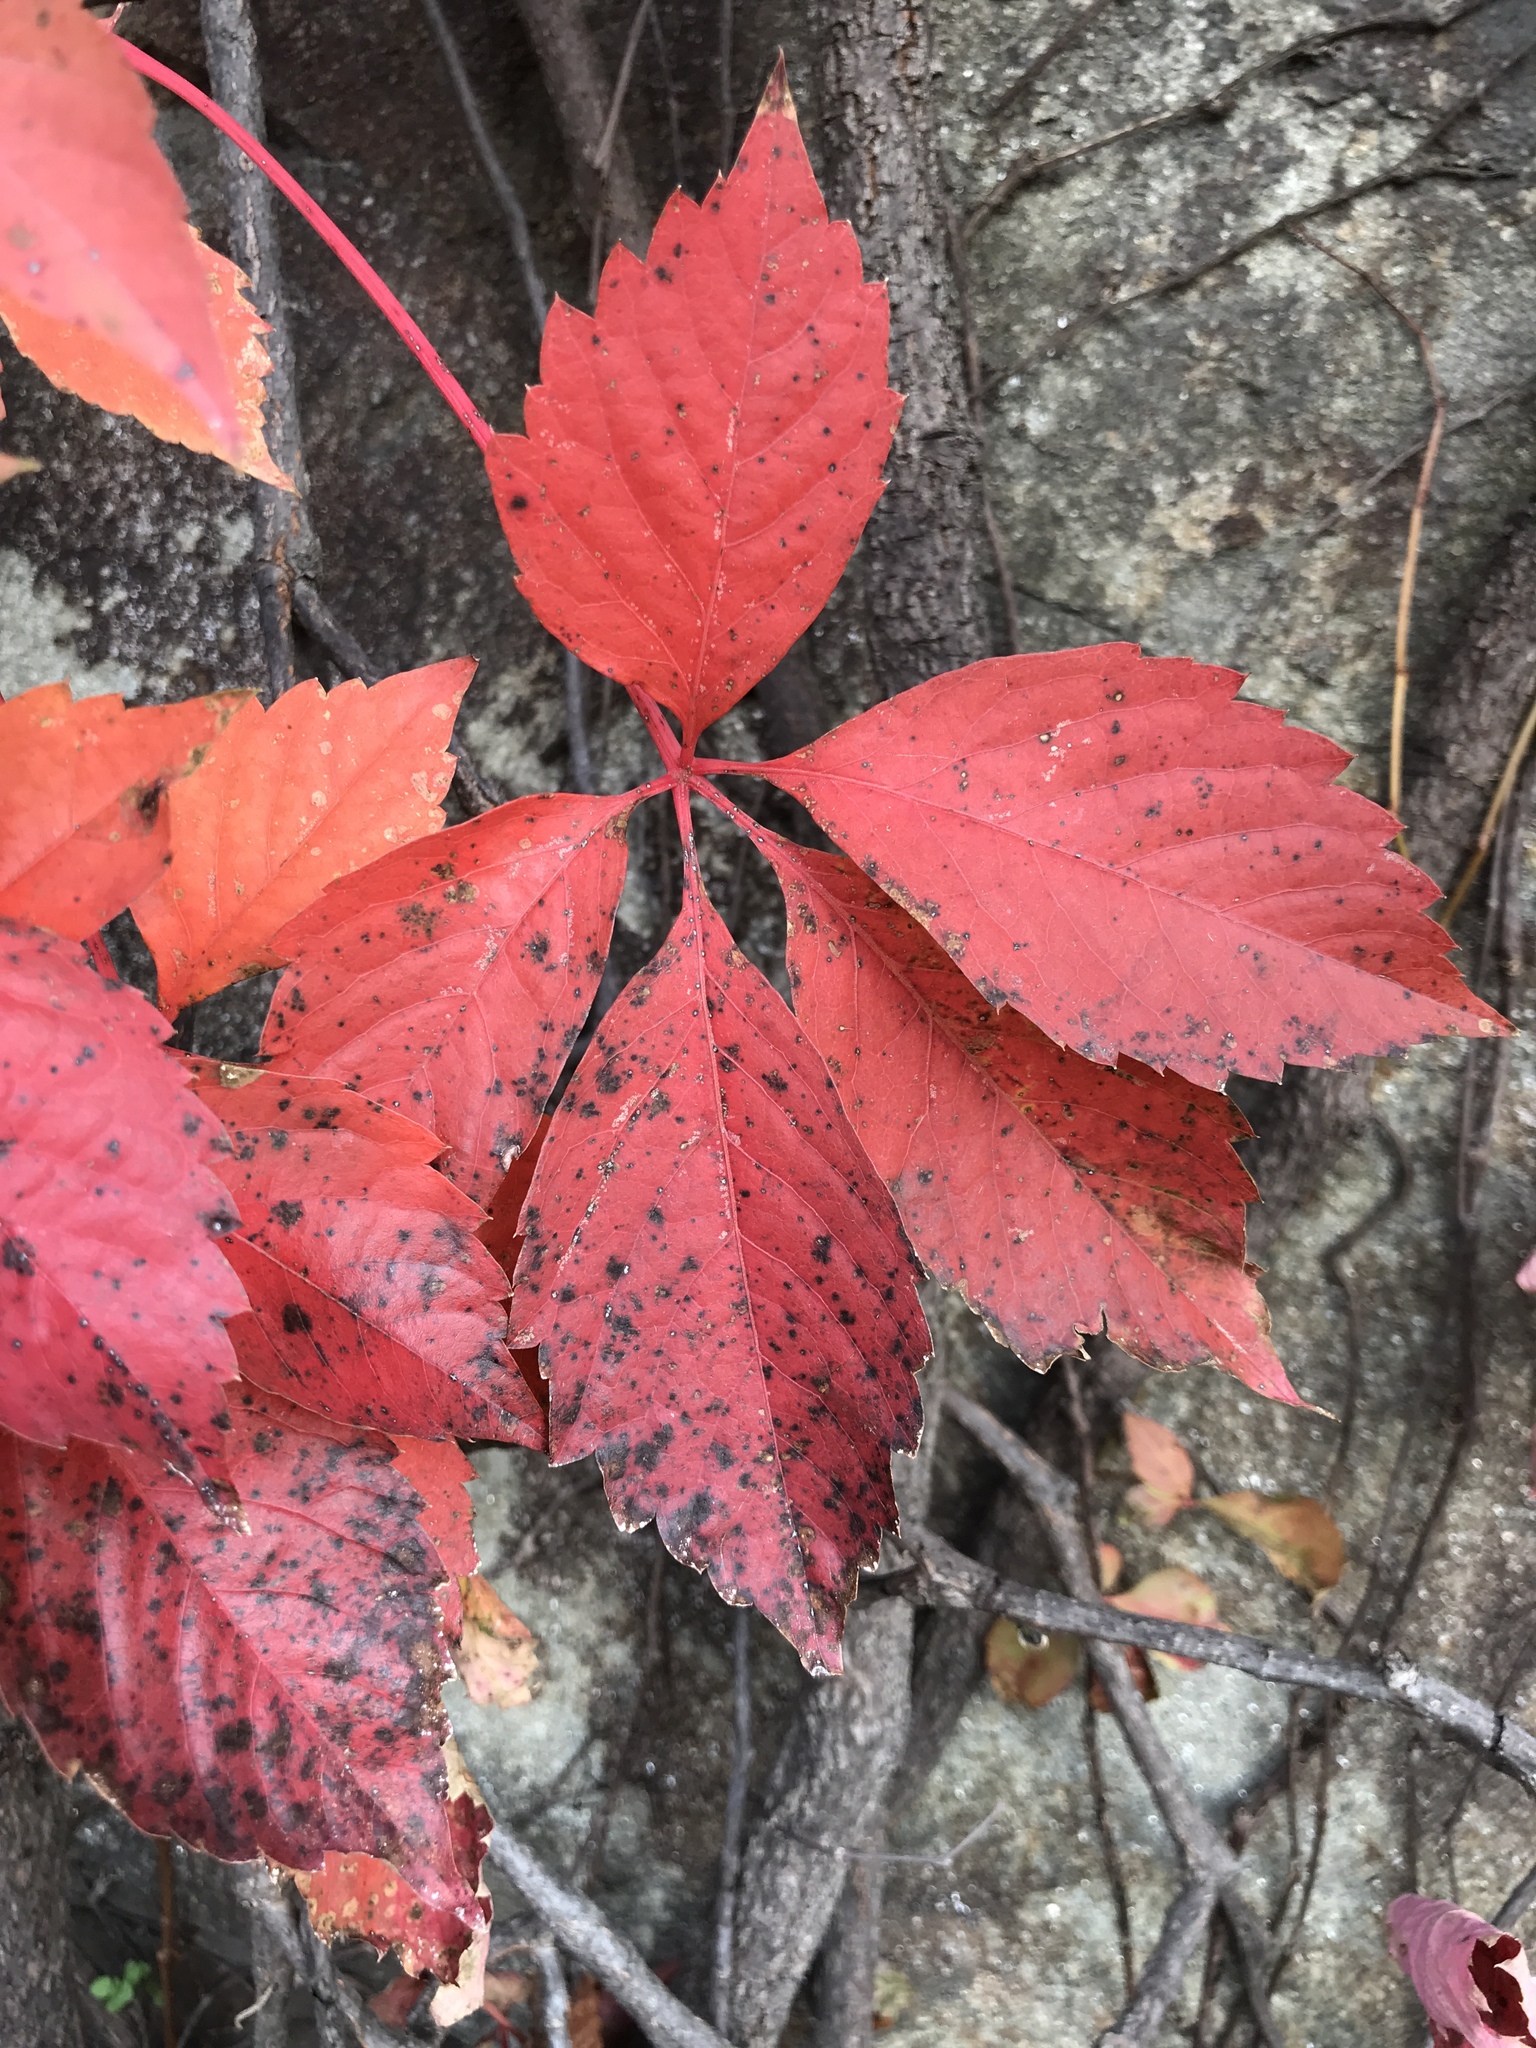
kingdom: Plantae
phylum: Tracheophyta
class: Magnoliopsida
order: Vitales
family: Vitaceae
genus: Parthenocissus
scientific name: Parthenocissus quinquefolia
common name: Virginia-creeper
